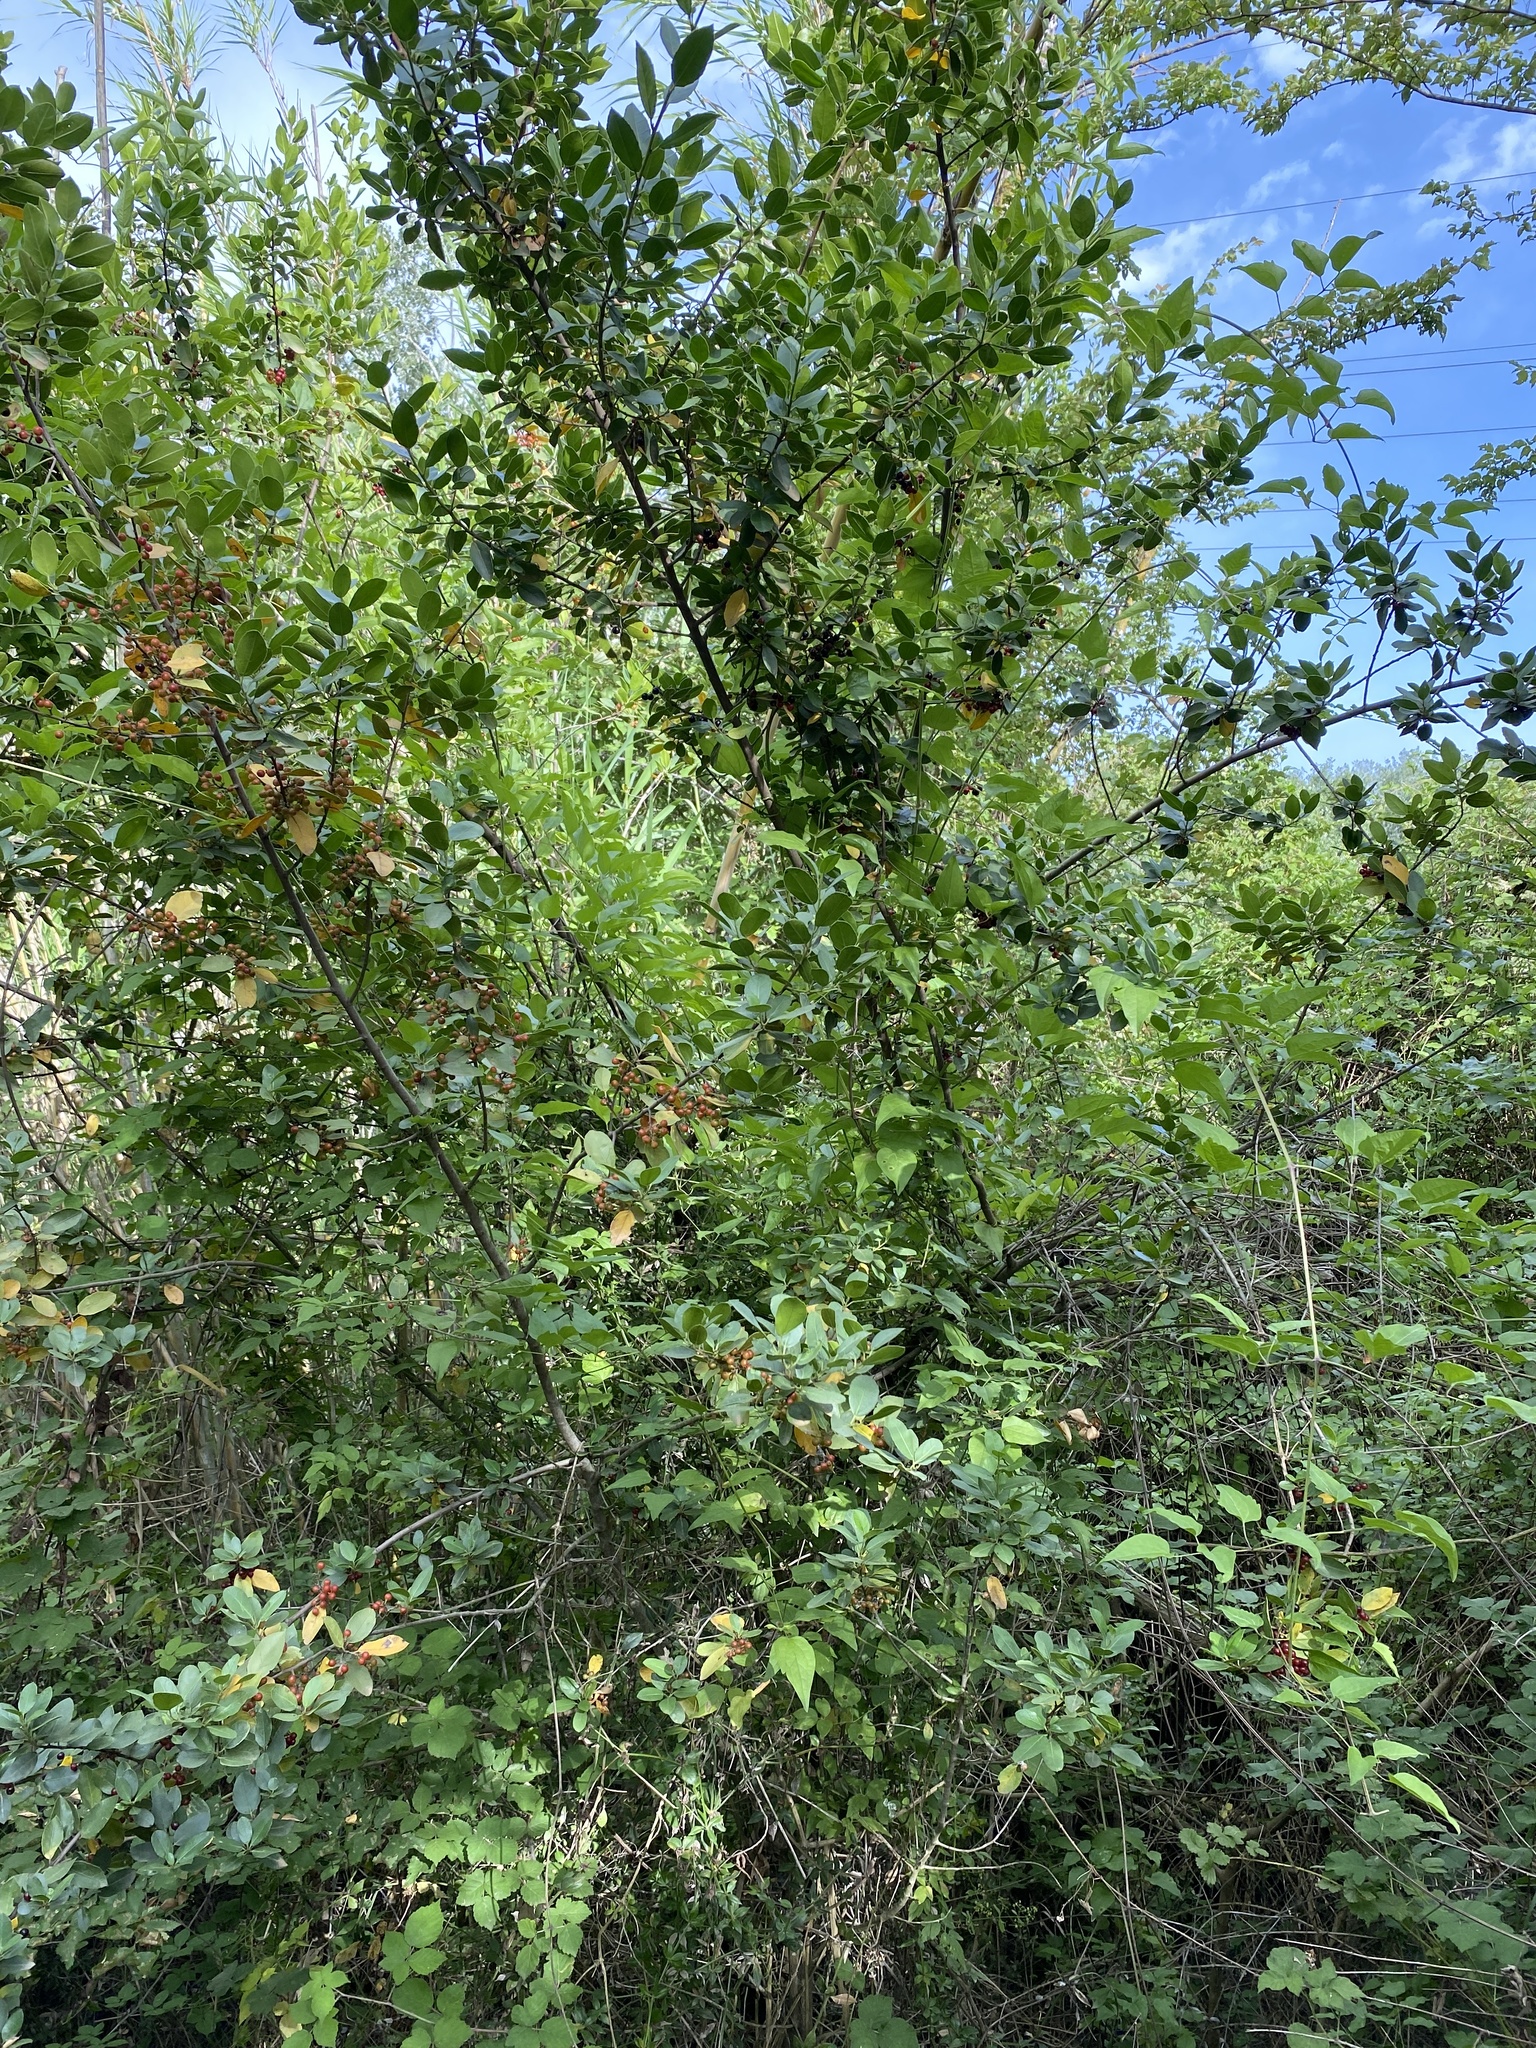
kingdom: Plantae
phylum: Tracheophyta
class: Magnoliopsida
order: Rosales
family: Rhamnaceae
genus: Rhamnus
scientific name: Rhamnus alaternus
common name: Mediterranean buckthorn
